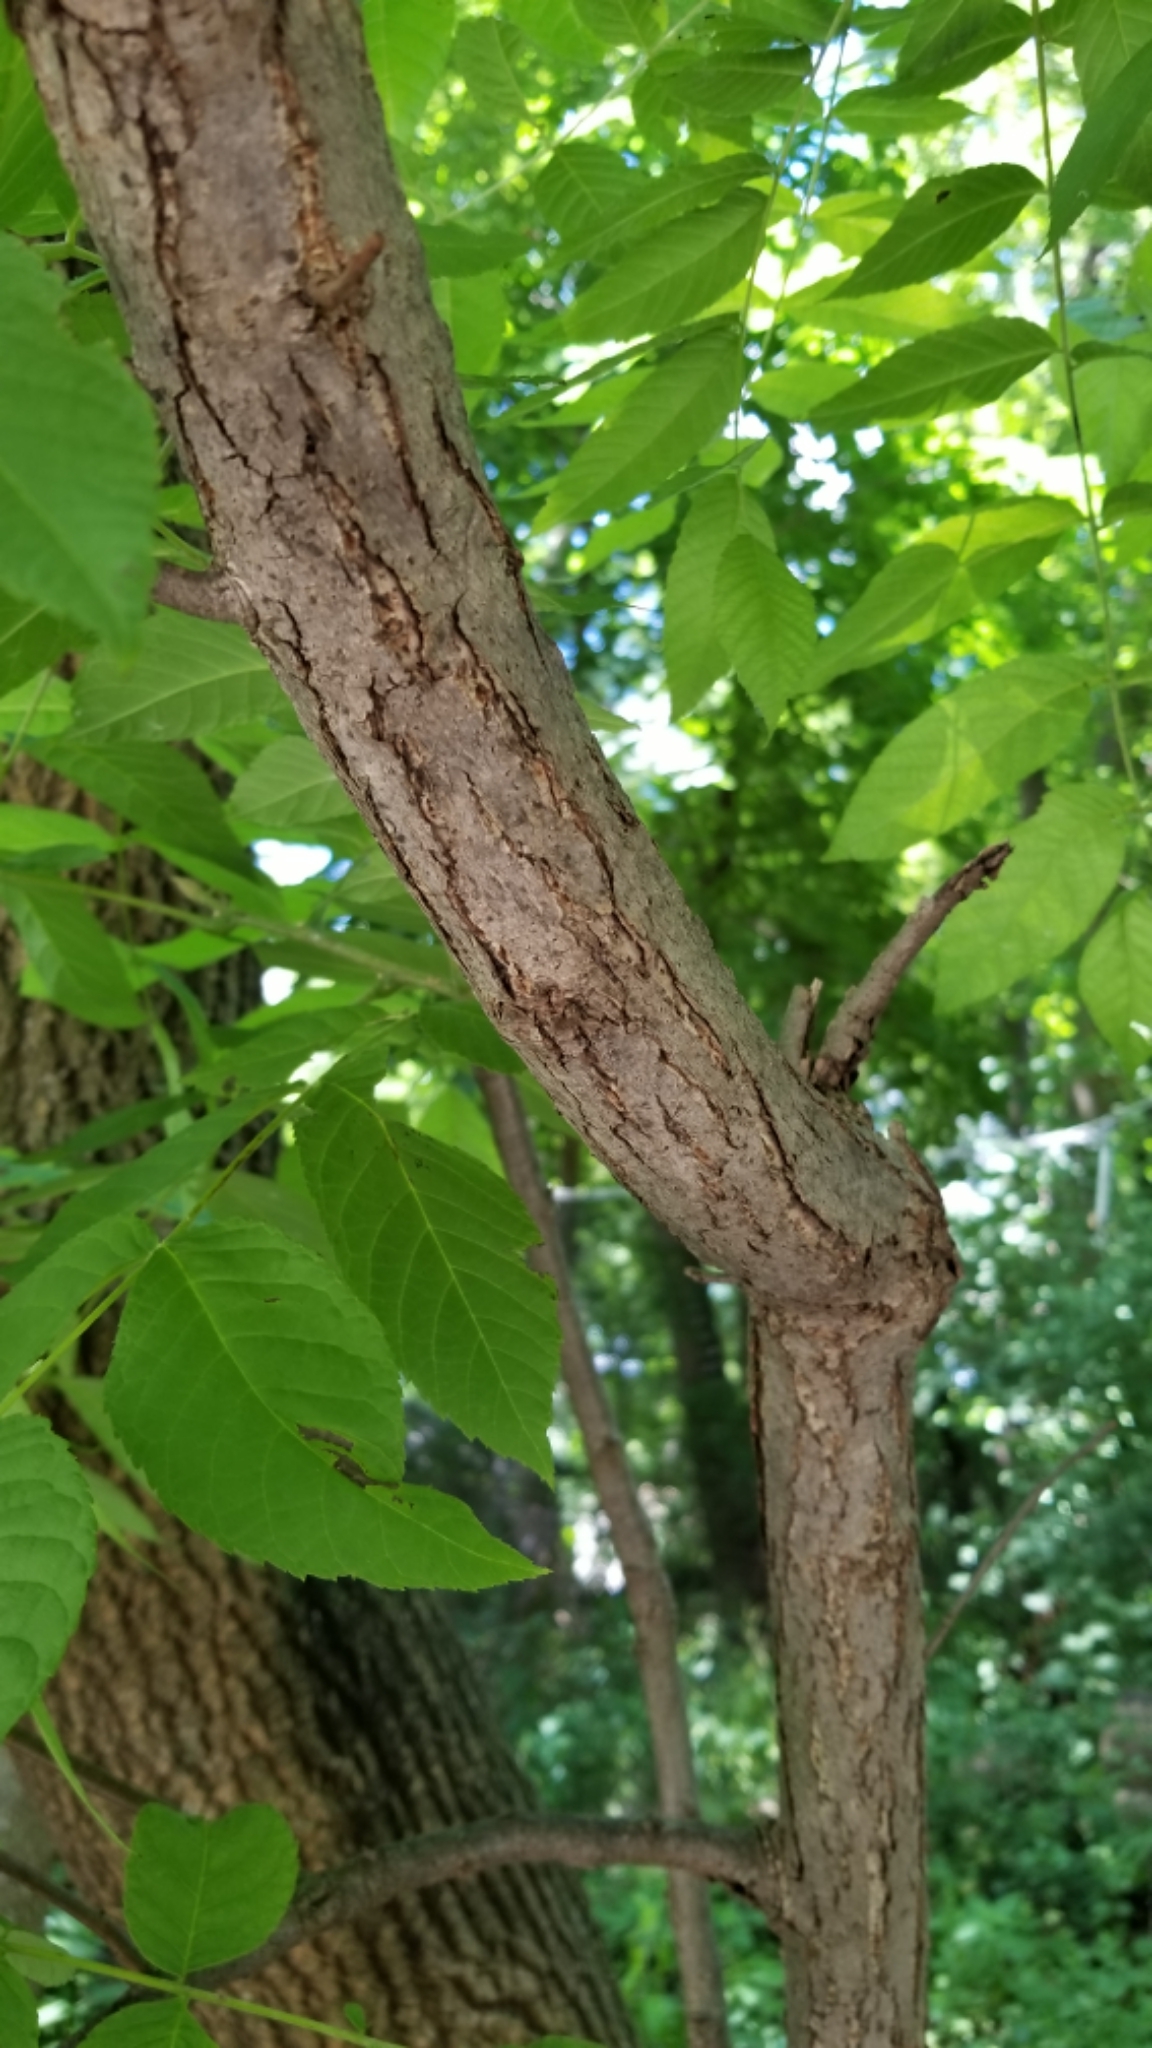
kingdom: Plantae
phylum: Tracheophyta
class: Magnoliopsida
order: Fagales
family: Juglandaceae
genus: Juglans
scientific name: Juglans nigra
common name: Black walnut
